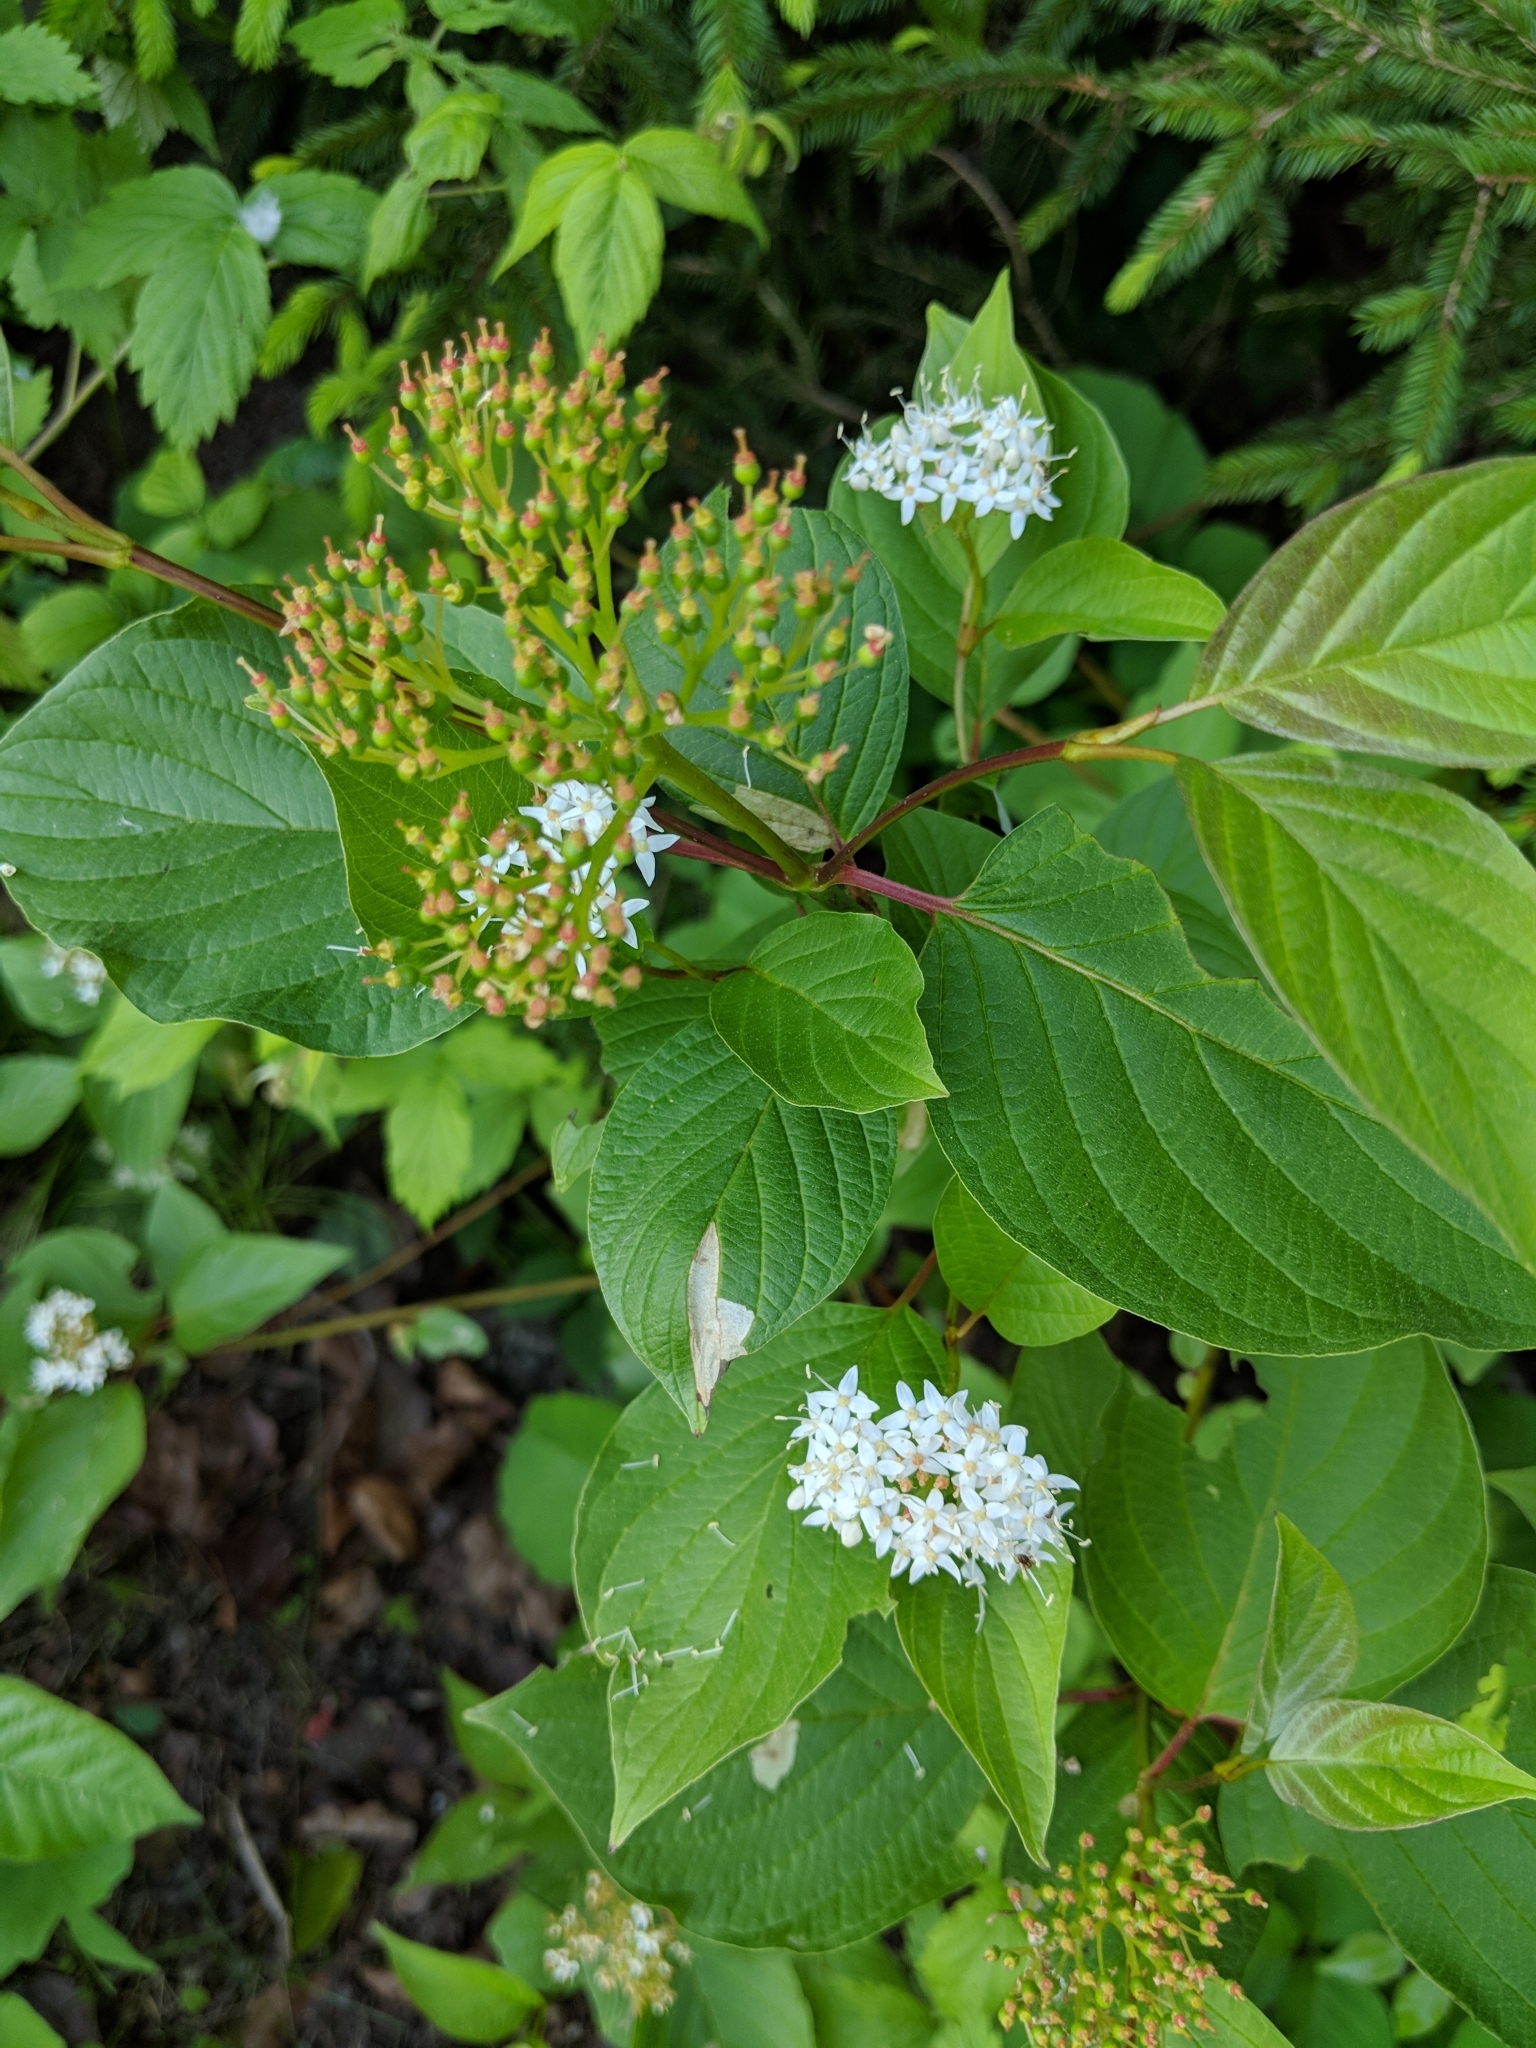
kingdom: Plantae
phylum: Tracheophyta
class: Magnoliopsida
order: Cornales
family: Cornaceae
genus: Cornus
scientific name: Cornus sericea
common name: Red-osier dogwood
